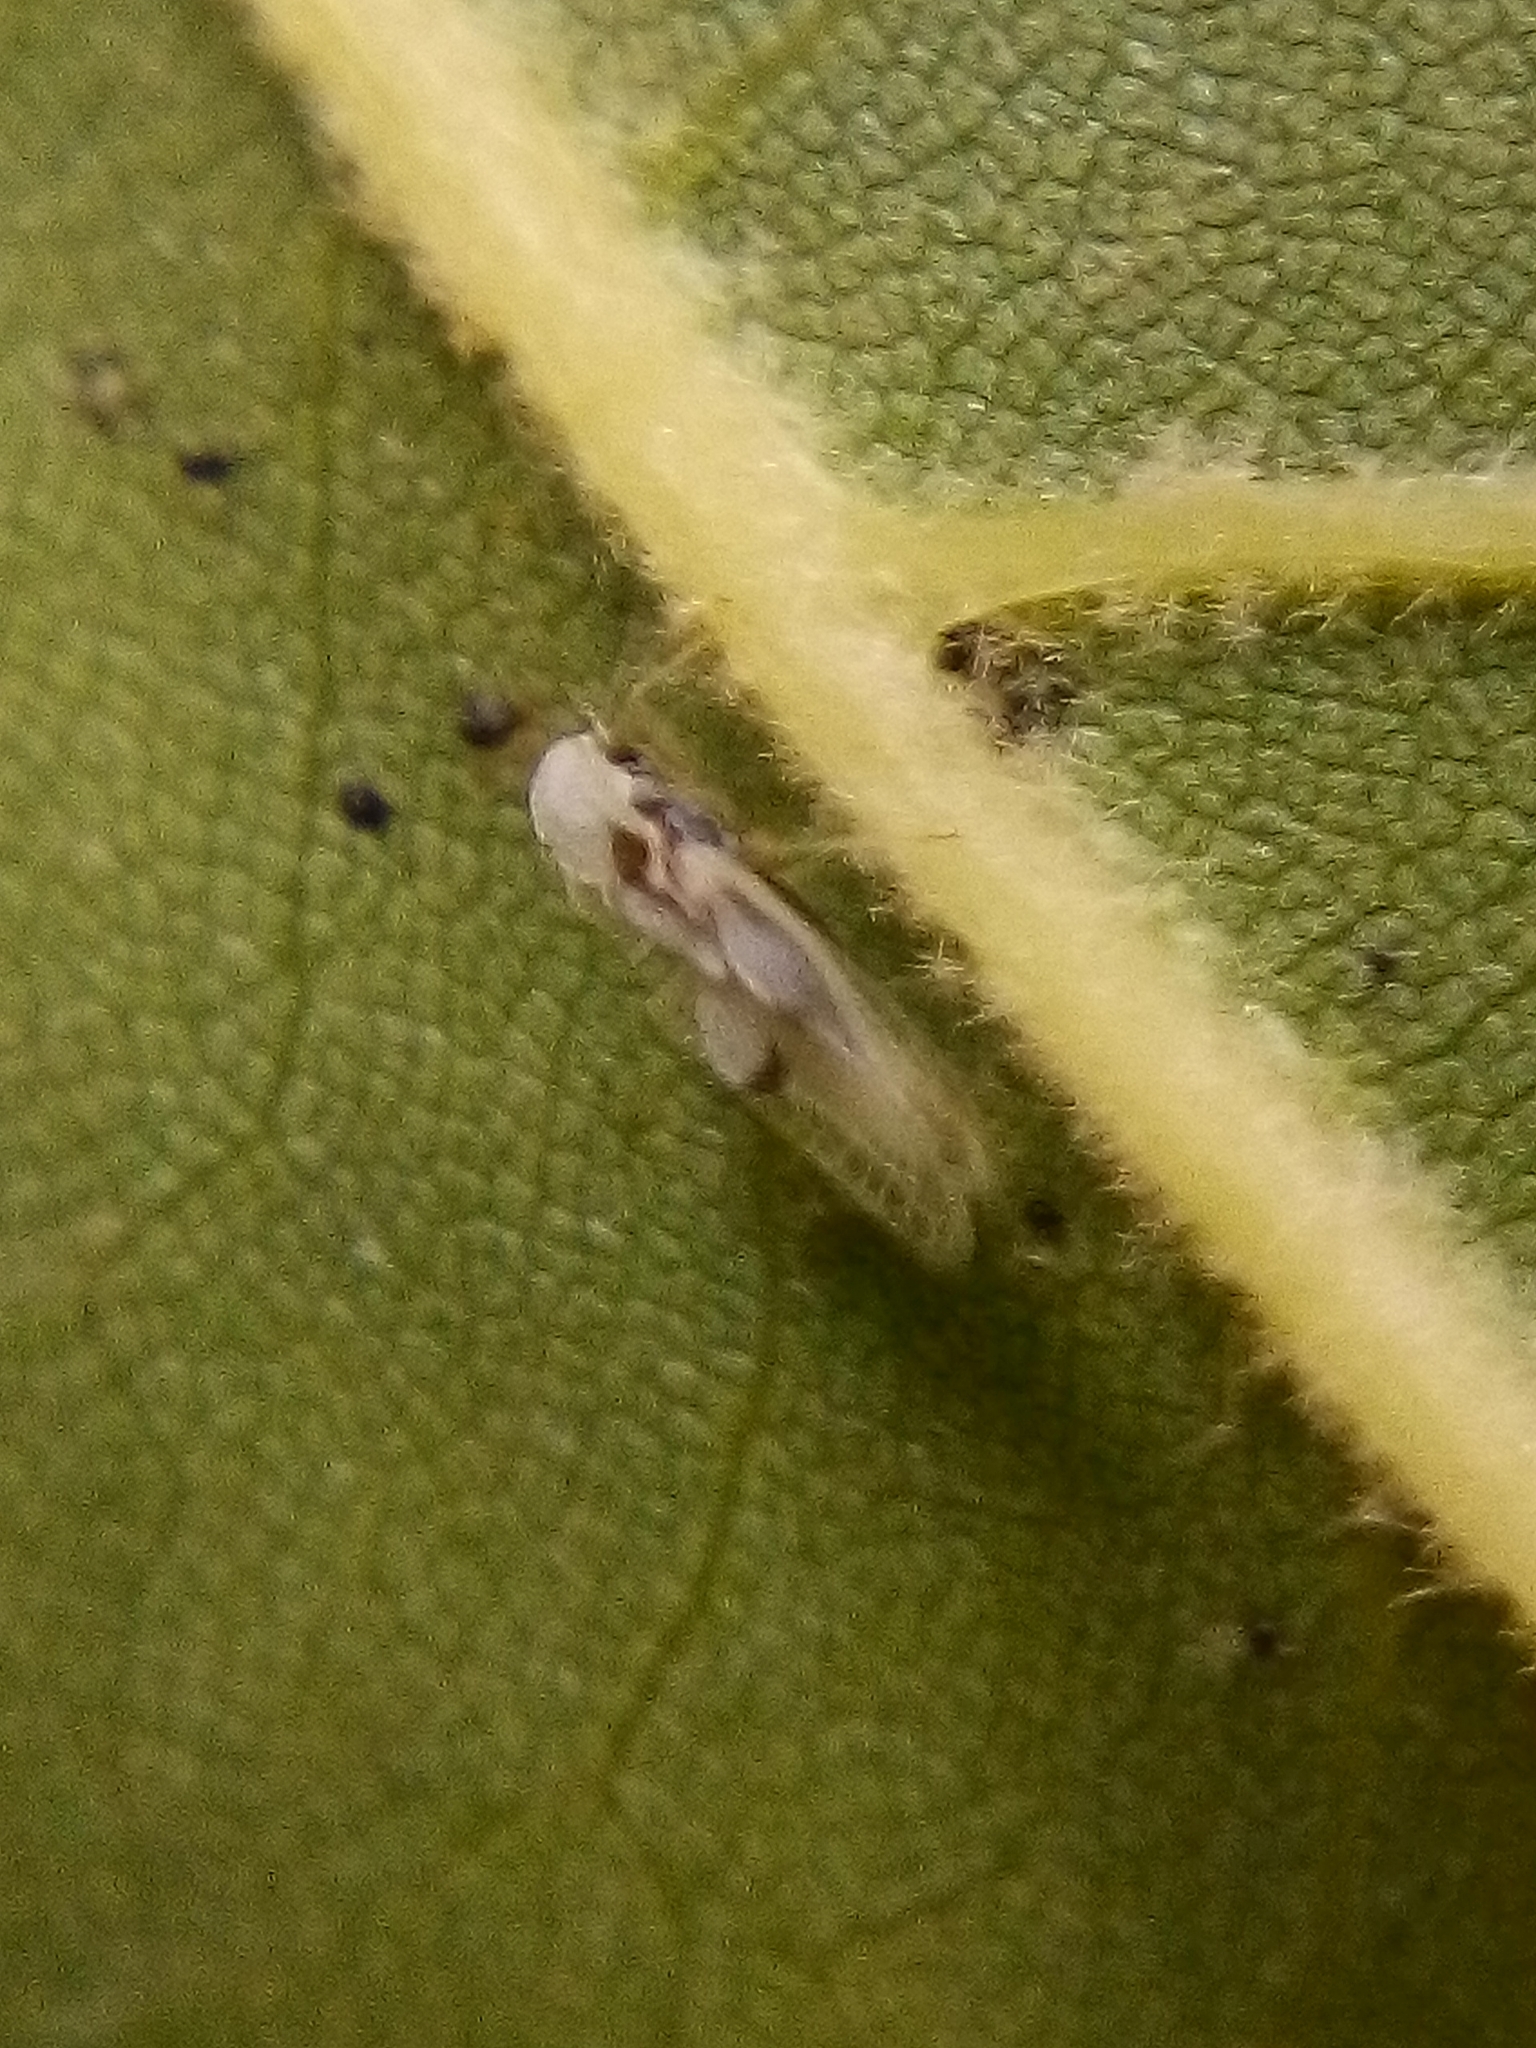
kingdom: Animalia
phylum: Arthropoda
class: Insecta
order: Hemiptera
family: Tingidae
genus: Corythucha
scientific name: Corythucha ciliata
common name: Sycamore lace bug
